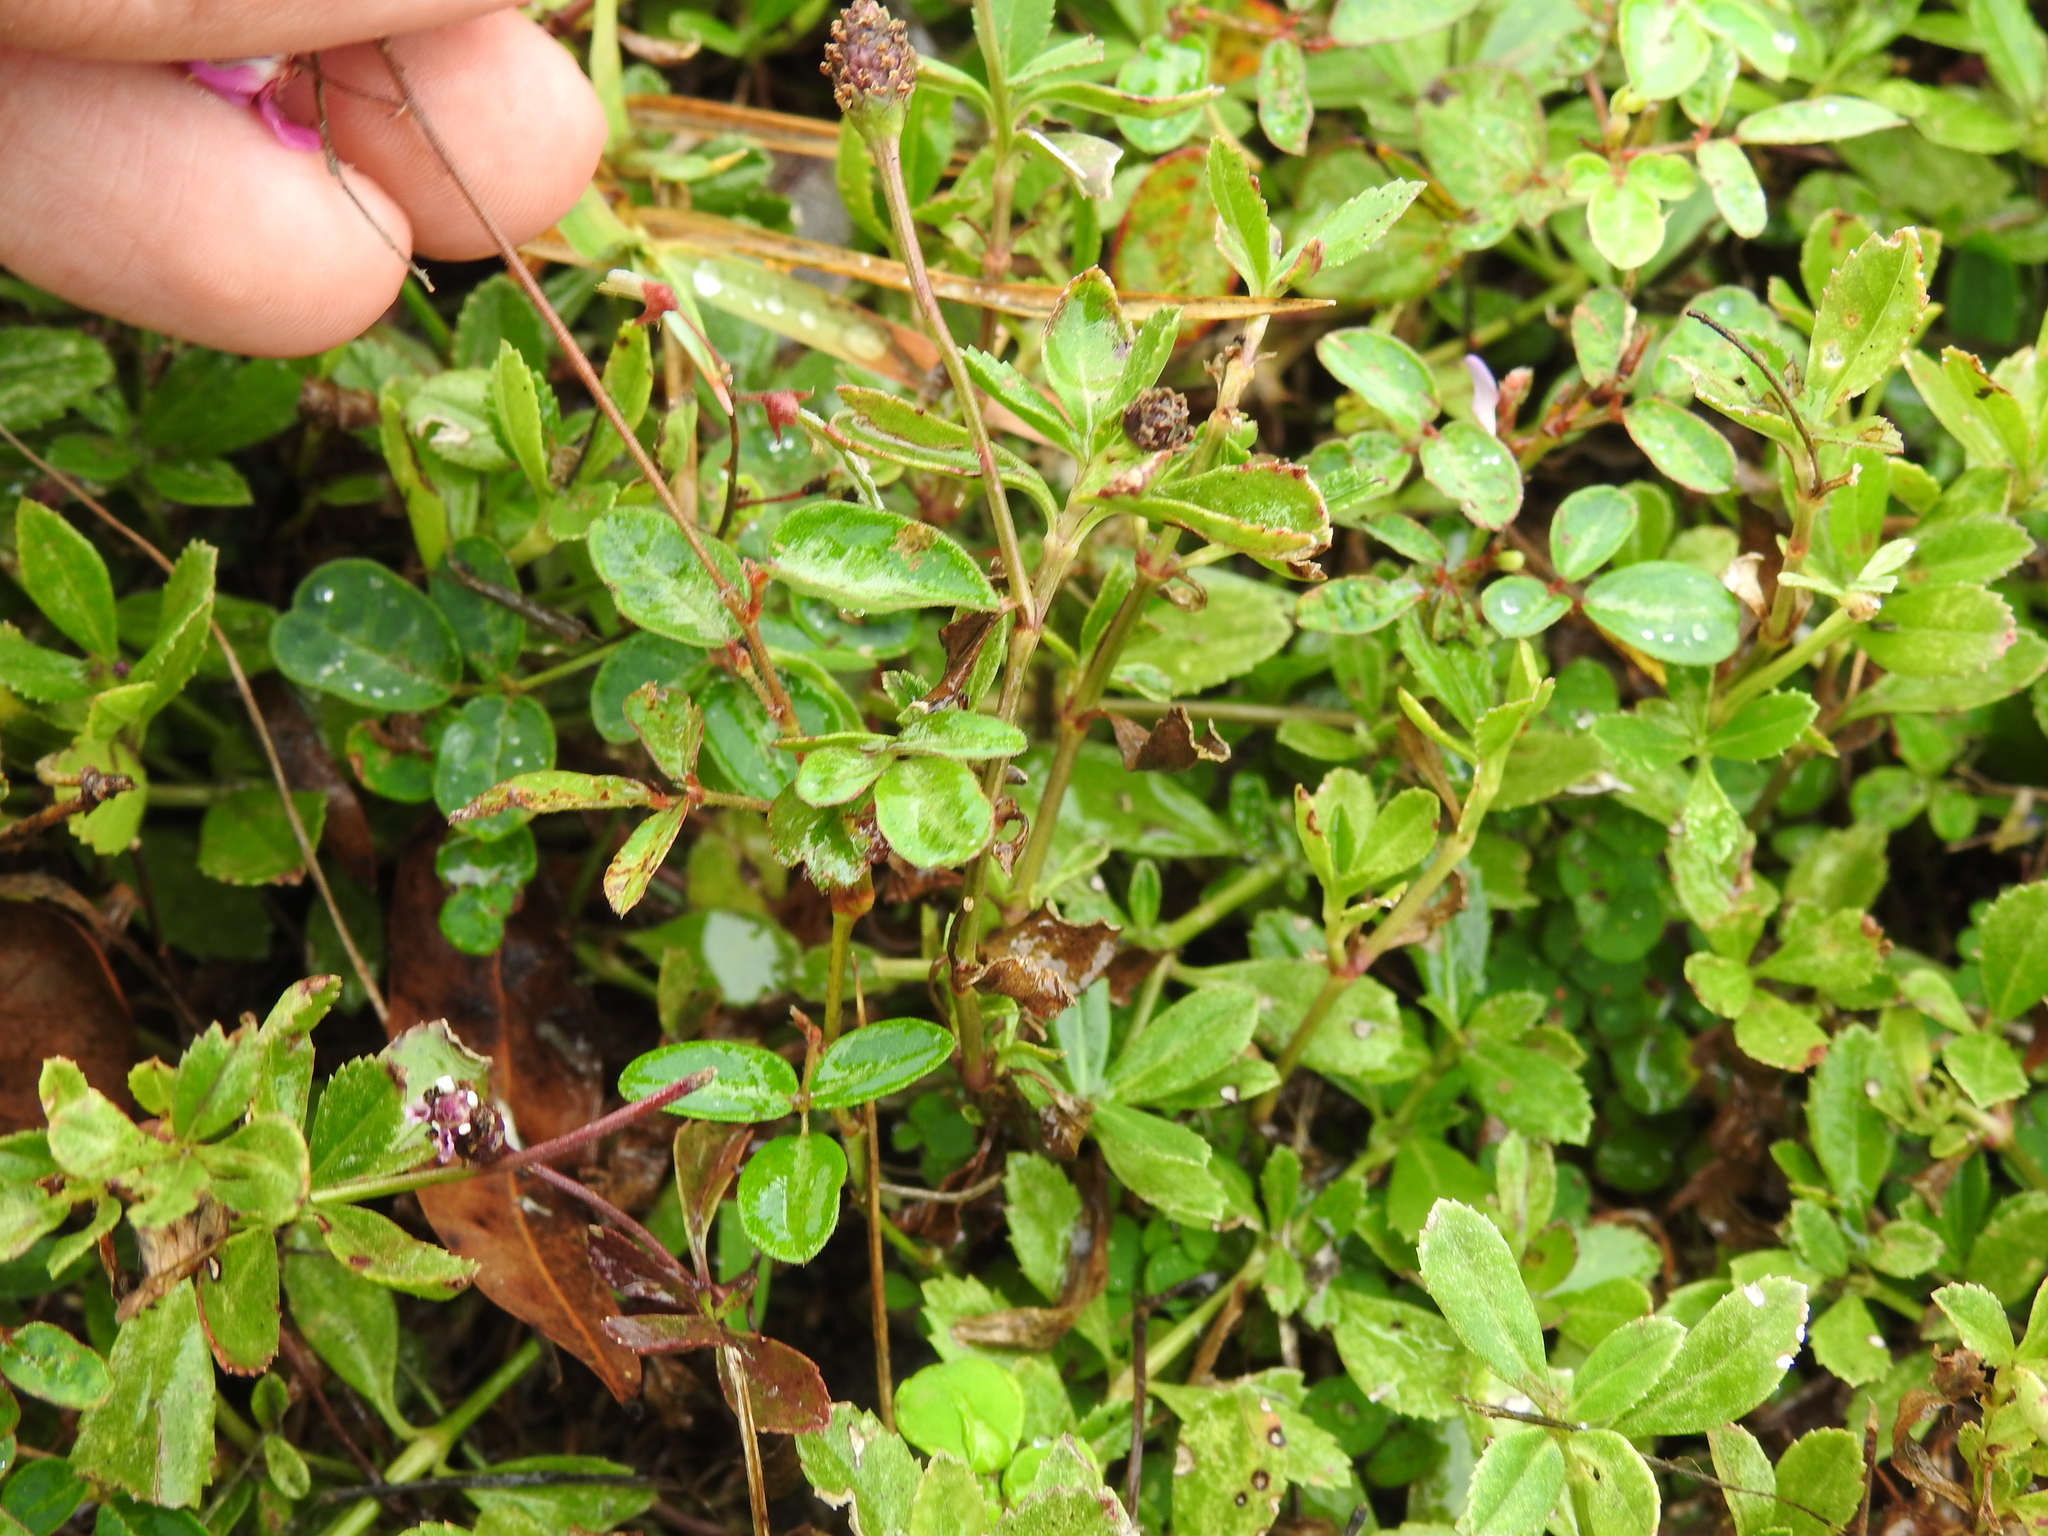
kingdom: Plantae
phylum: Tracheophyta
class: Magnoliopsida
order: Lamiales
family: Verbenaceae
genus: Phyla
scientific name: Phyla nodiflora
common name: Frogfruit
